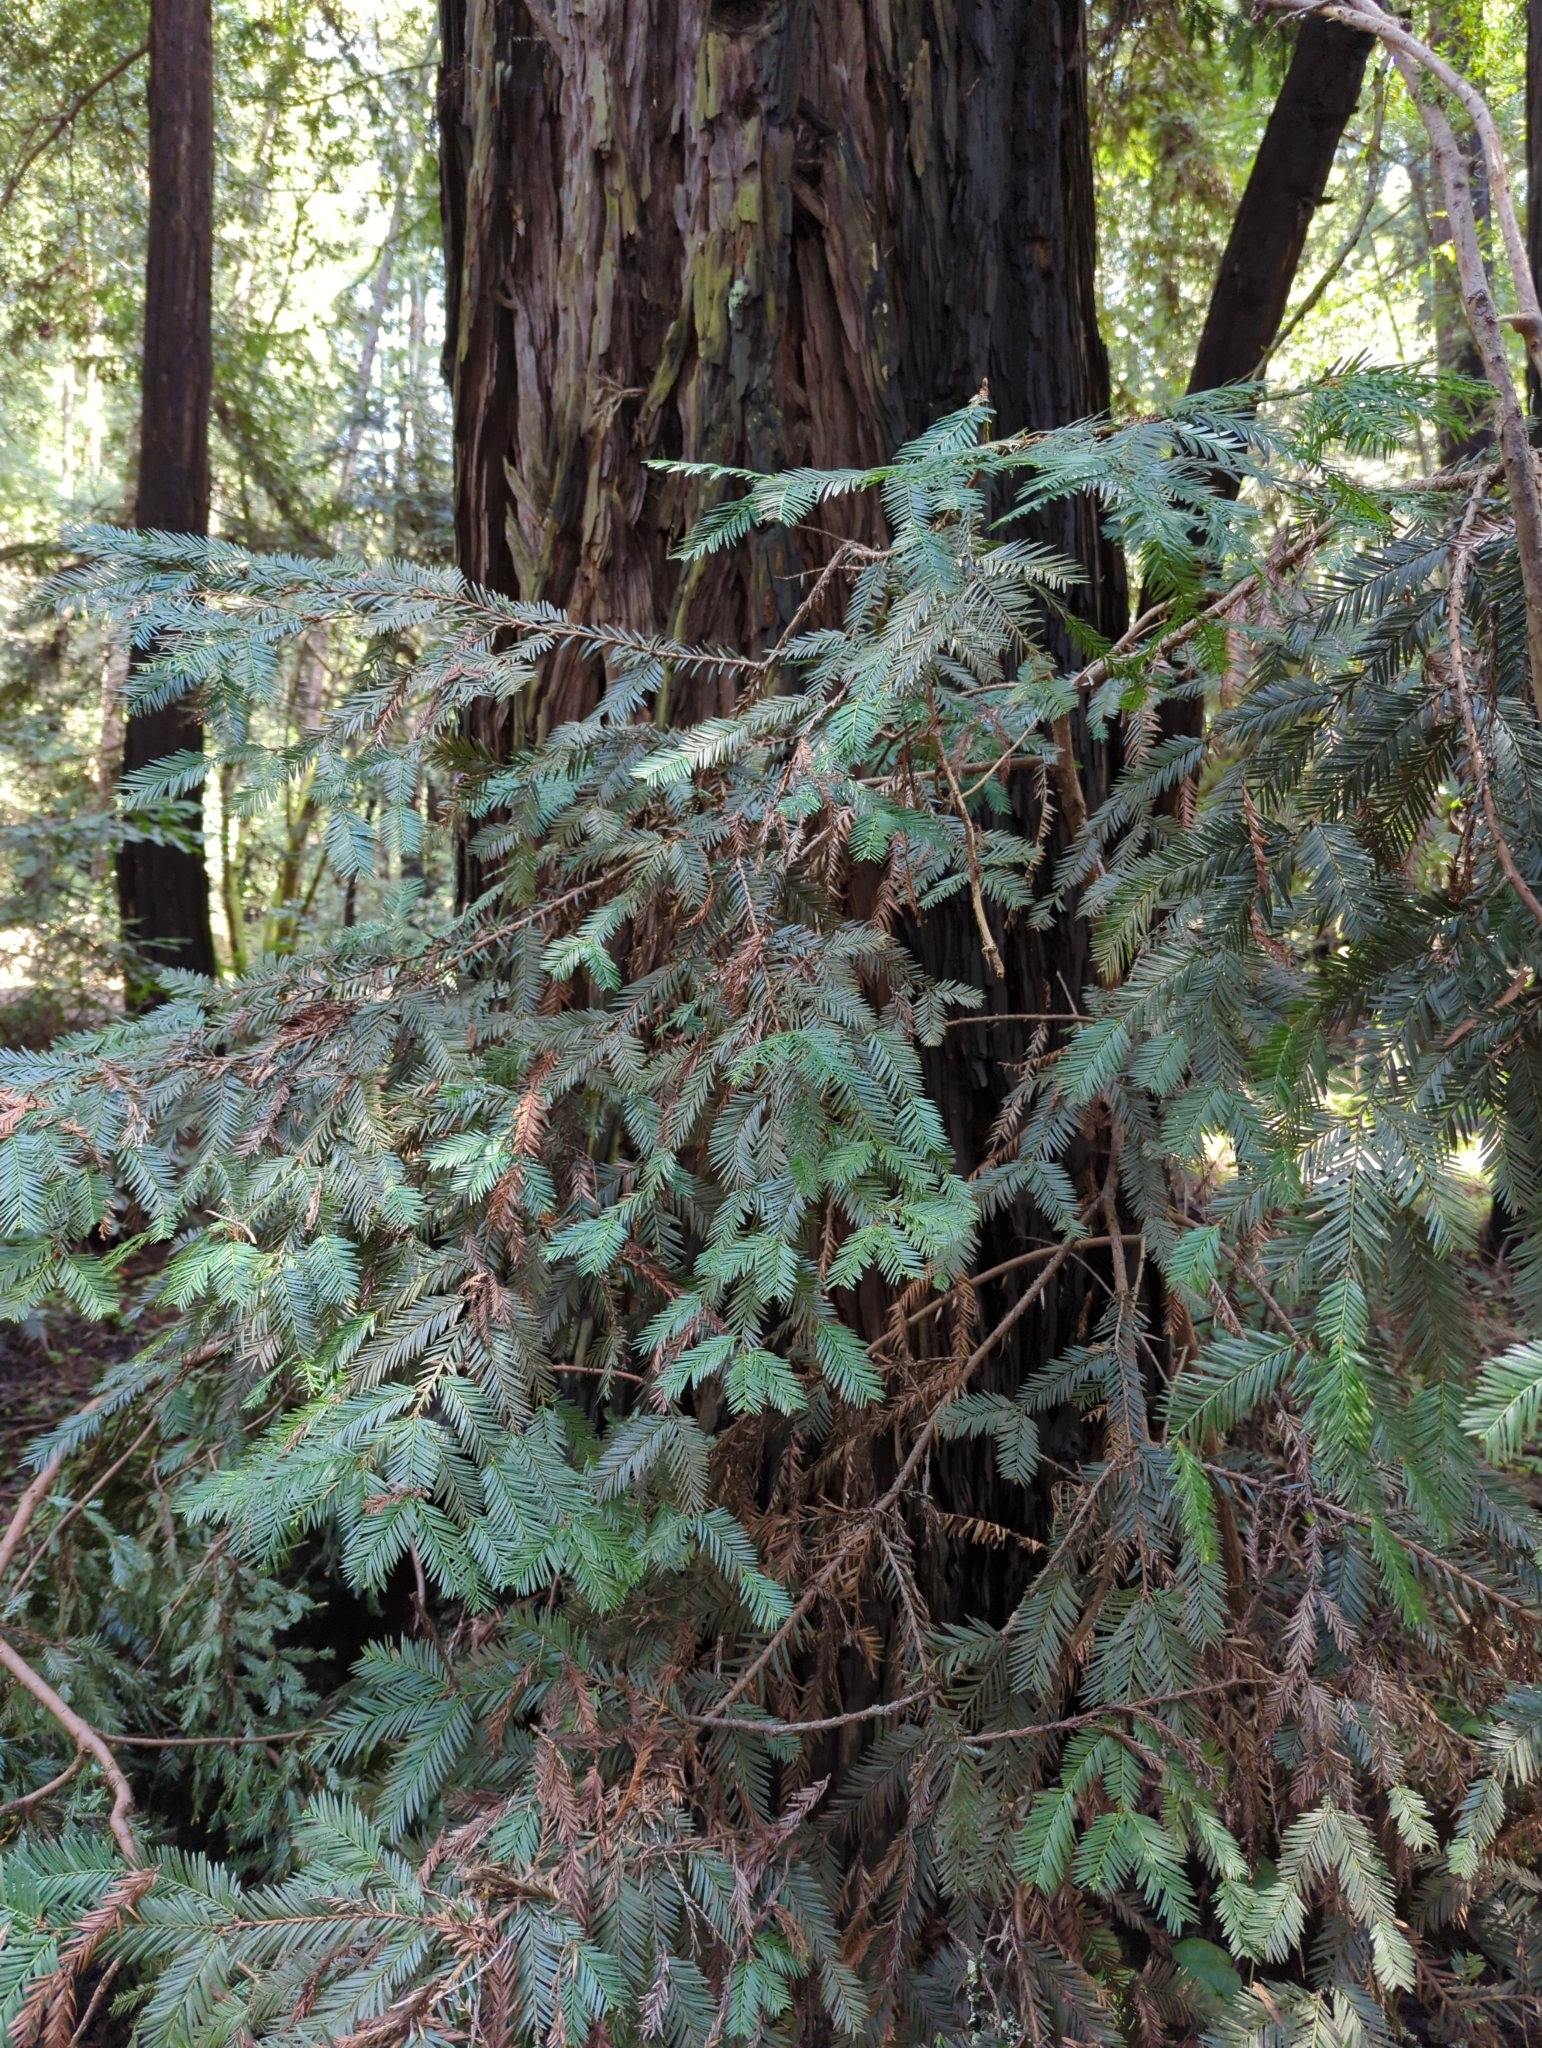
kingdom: Plantae
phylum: Tracheophyta
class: Pinopsida
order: Pinales
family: Cupressaceae
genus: Sequoia
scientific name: Sequoia sempervirens
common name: Coast redwood
